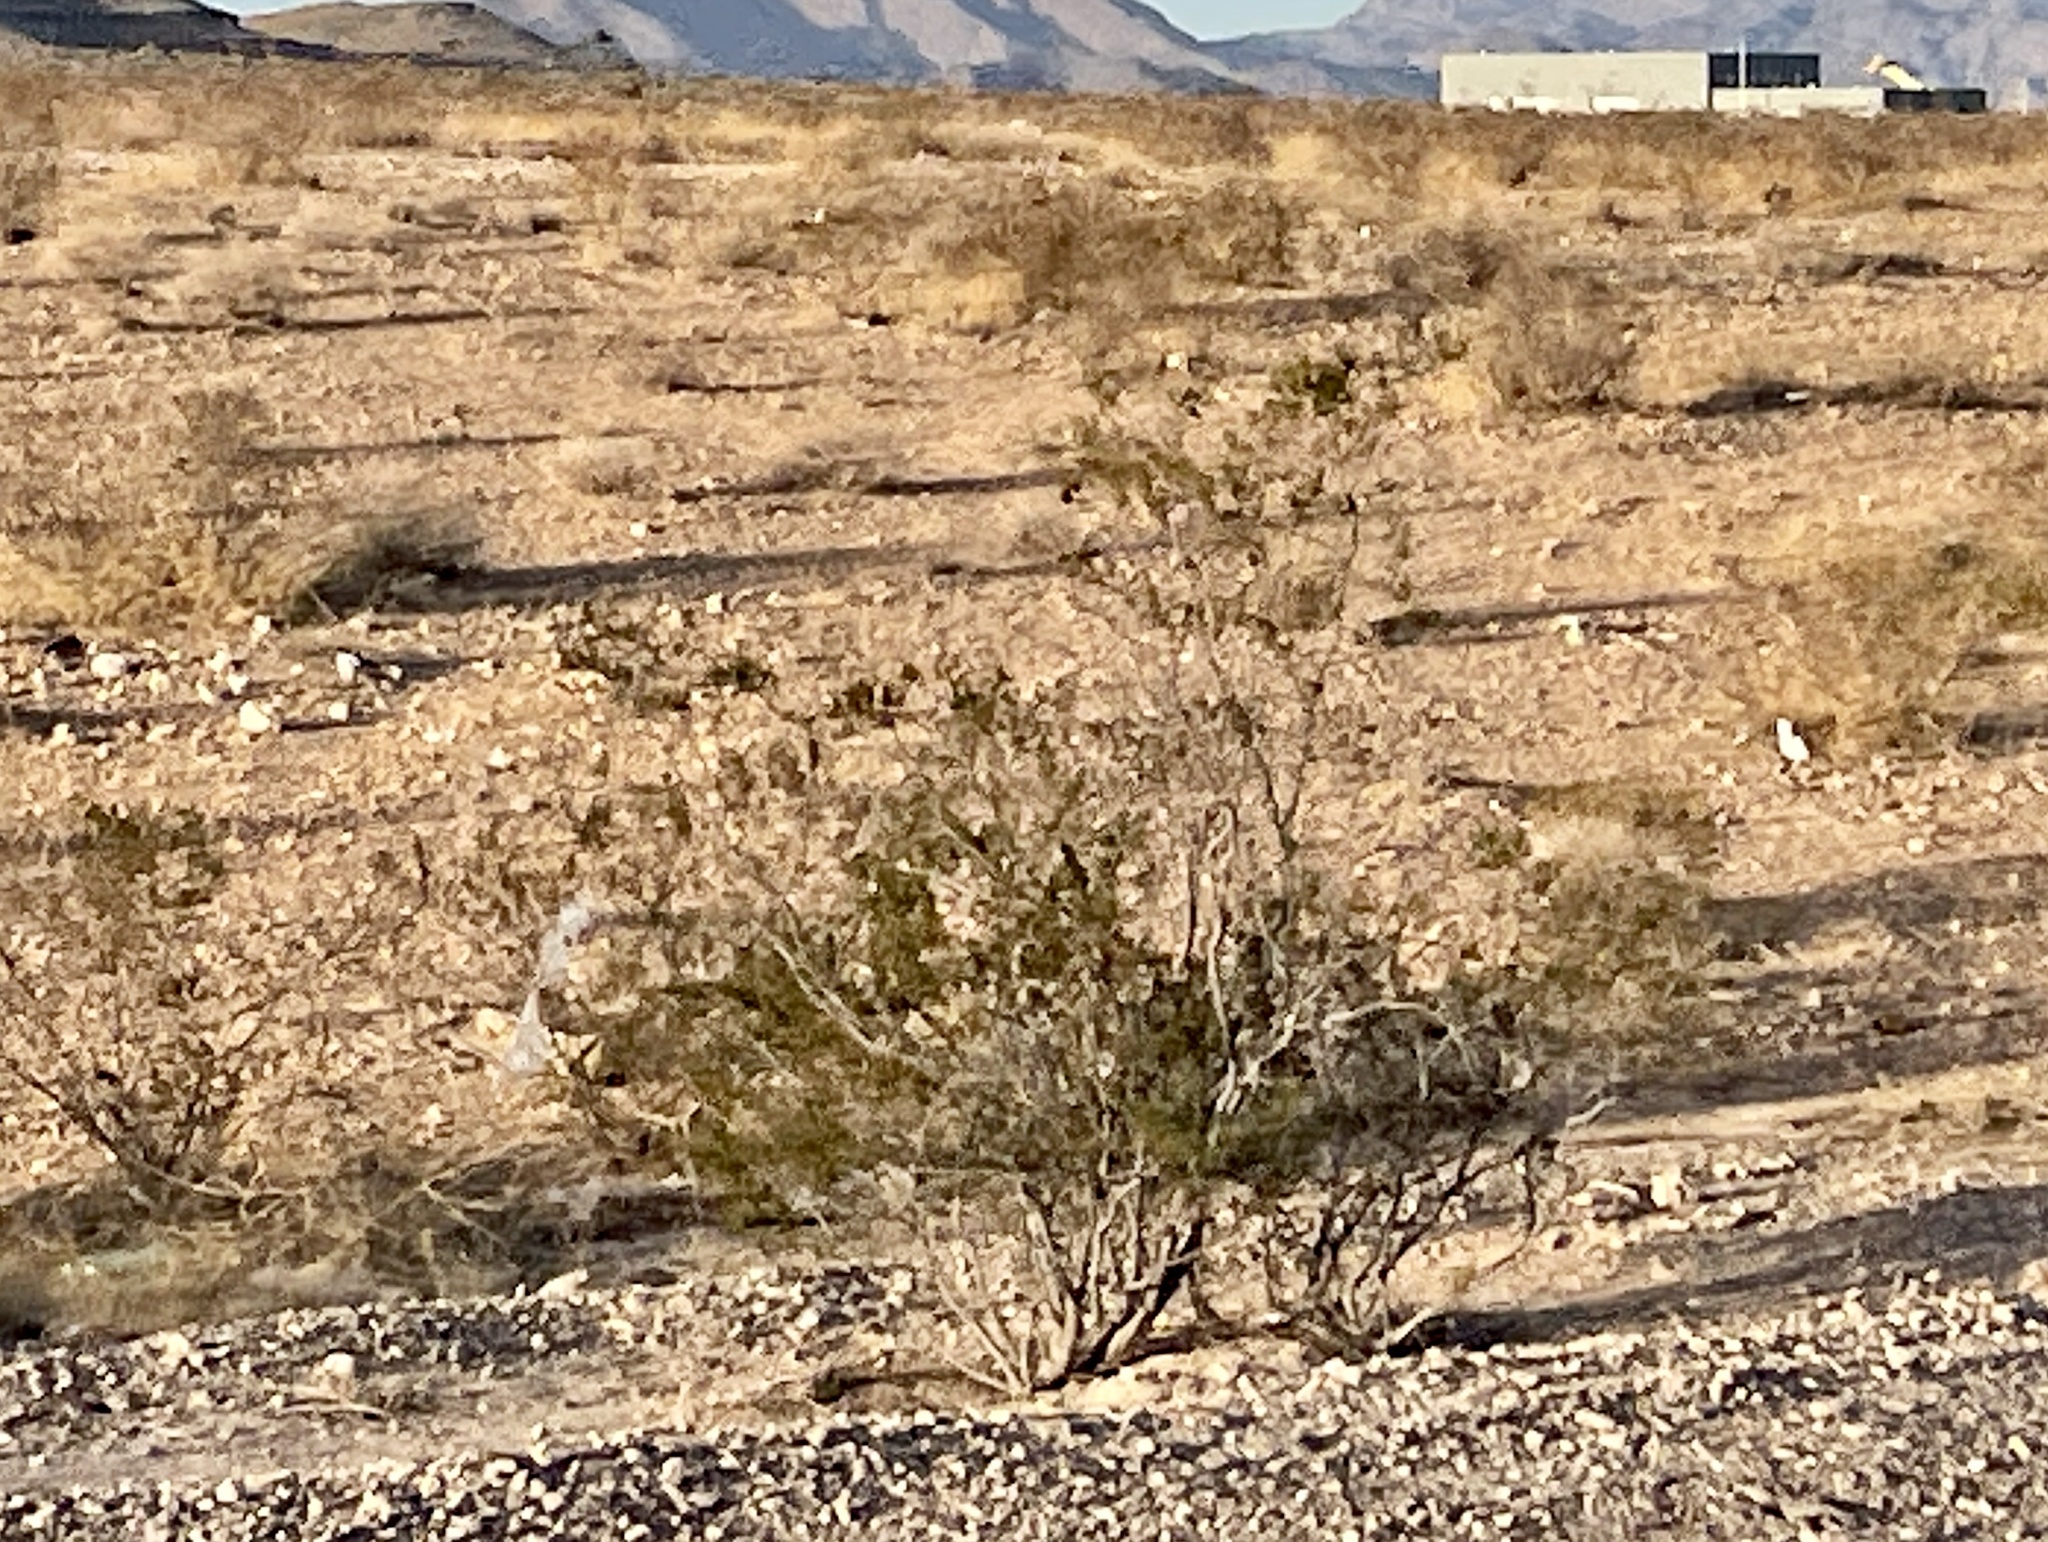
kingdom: Plantae
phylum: Tracheophyta
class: Magnoliopsida
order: Zygophyllales
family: Zygophyllaceae
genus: Larrea
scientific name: Larrea tridentata
